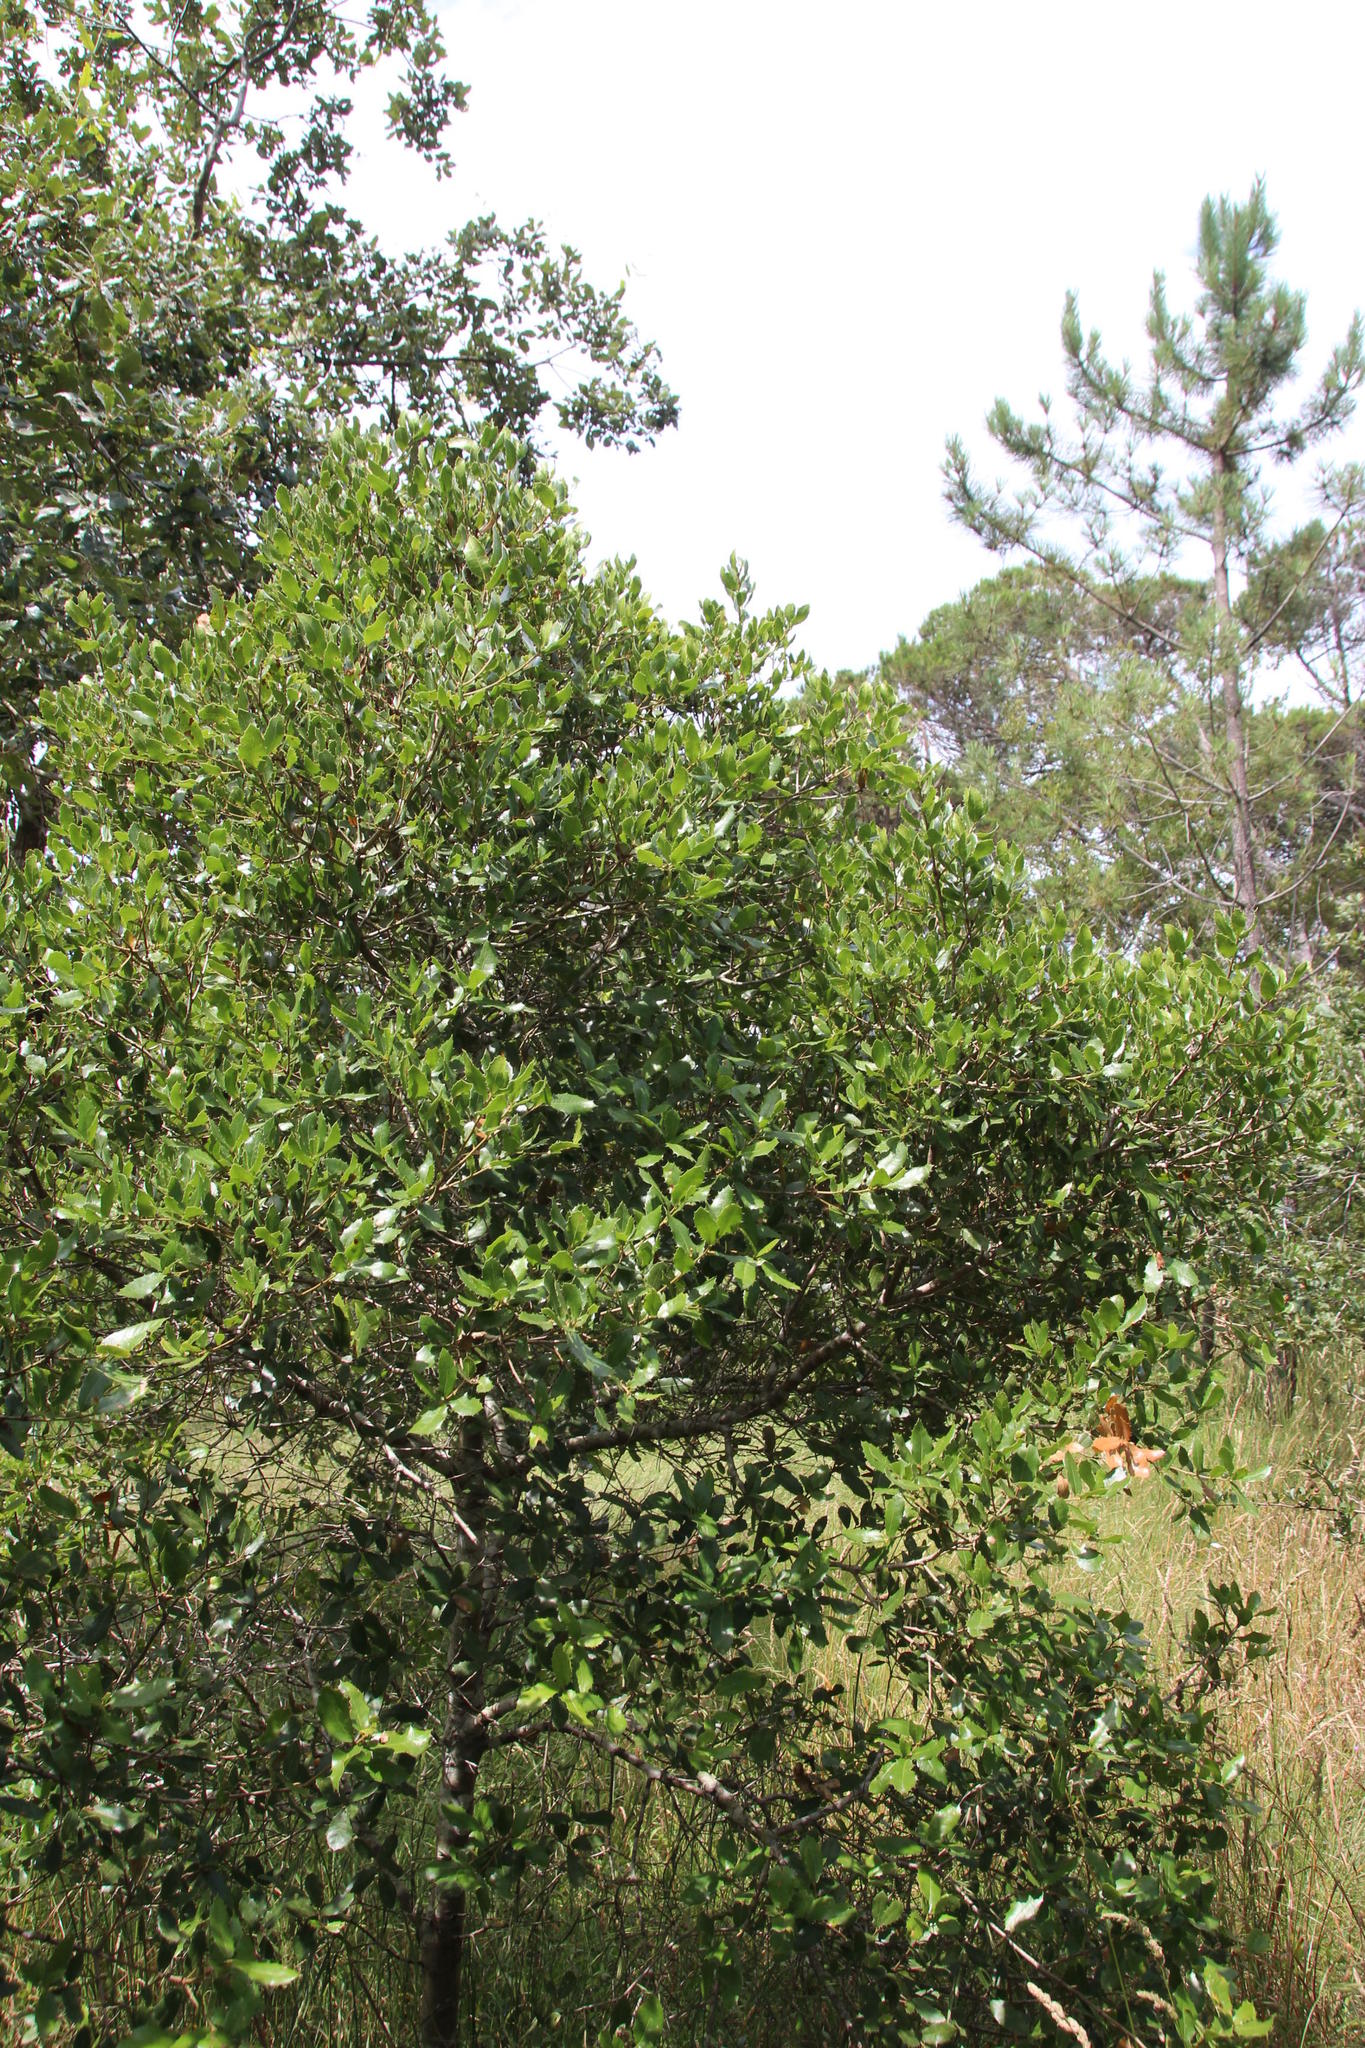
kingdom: Plantae
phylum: Tracheophyta
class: Magnoliopsida
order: Fagales
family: Fagaceae
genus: Quercus
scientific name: Quercus pseudococcifera
